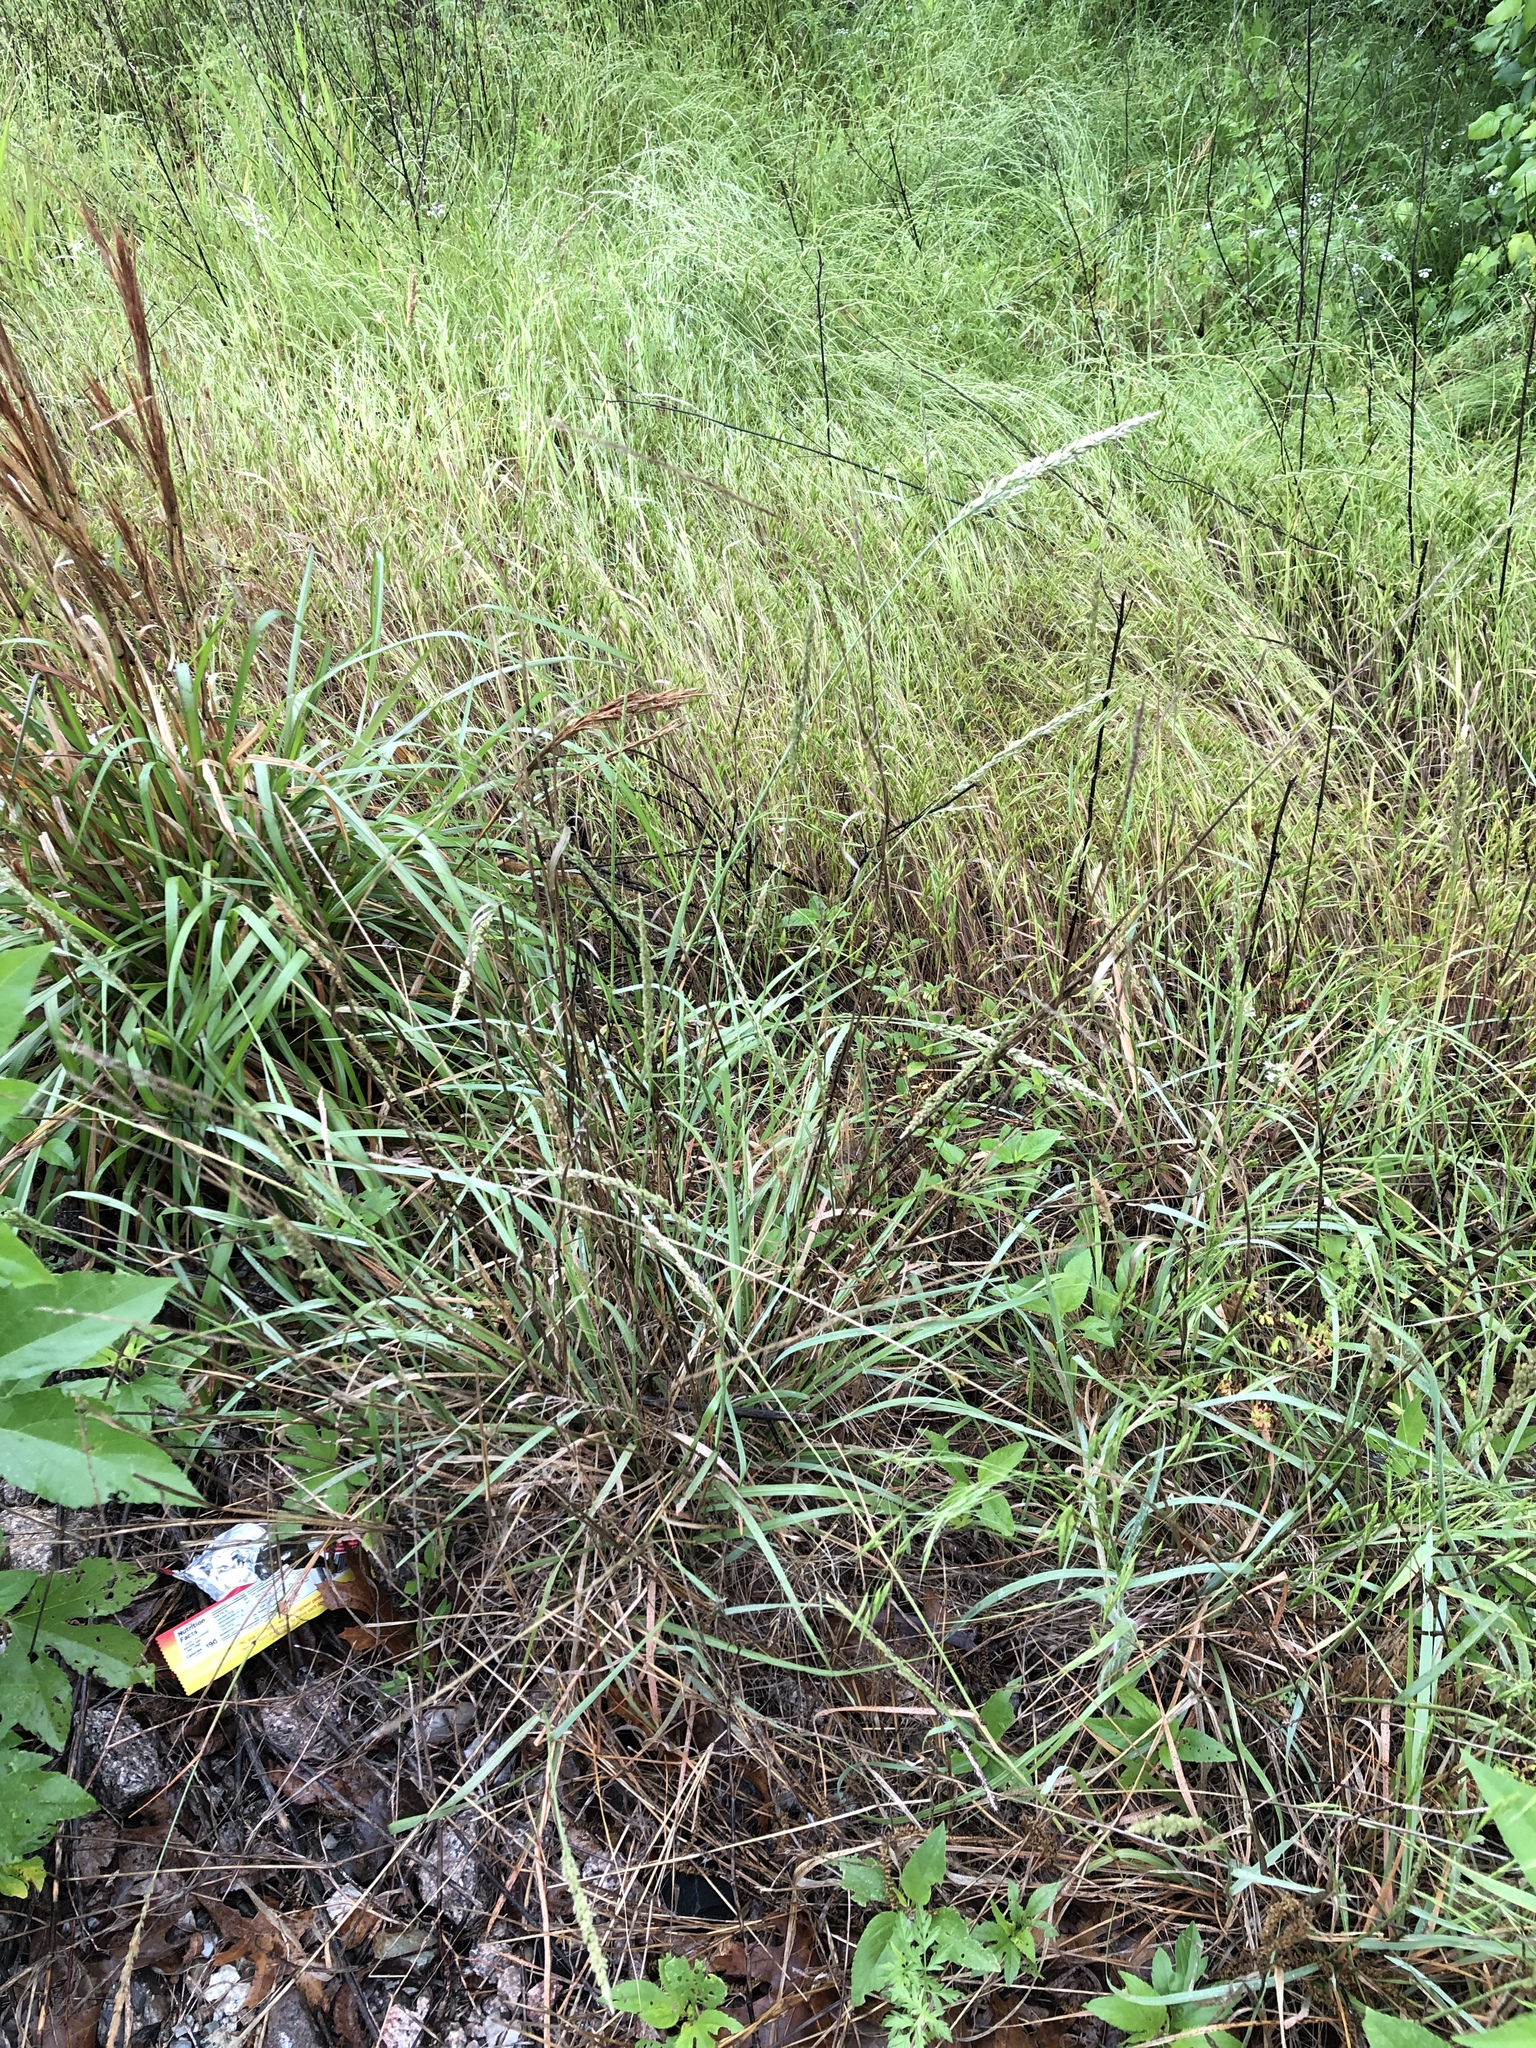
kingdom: Plantae
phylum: Tracheophyta
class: Liliopsida
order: Poales
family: Poaceae
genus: Tridens
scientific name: Tridens albescens
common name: White tridens
